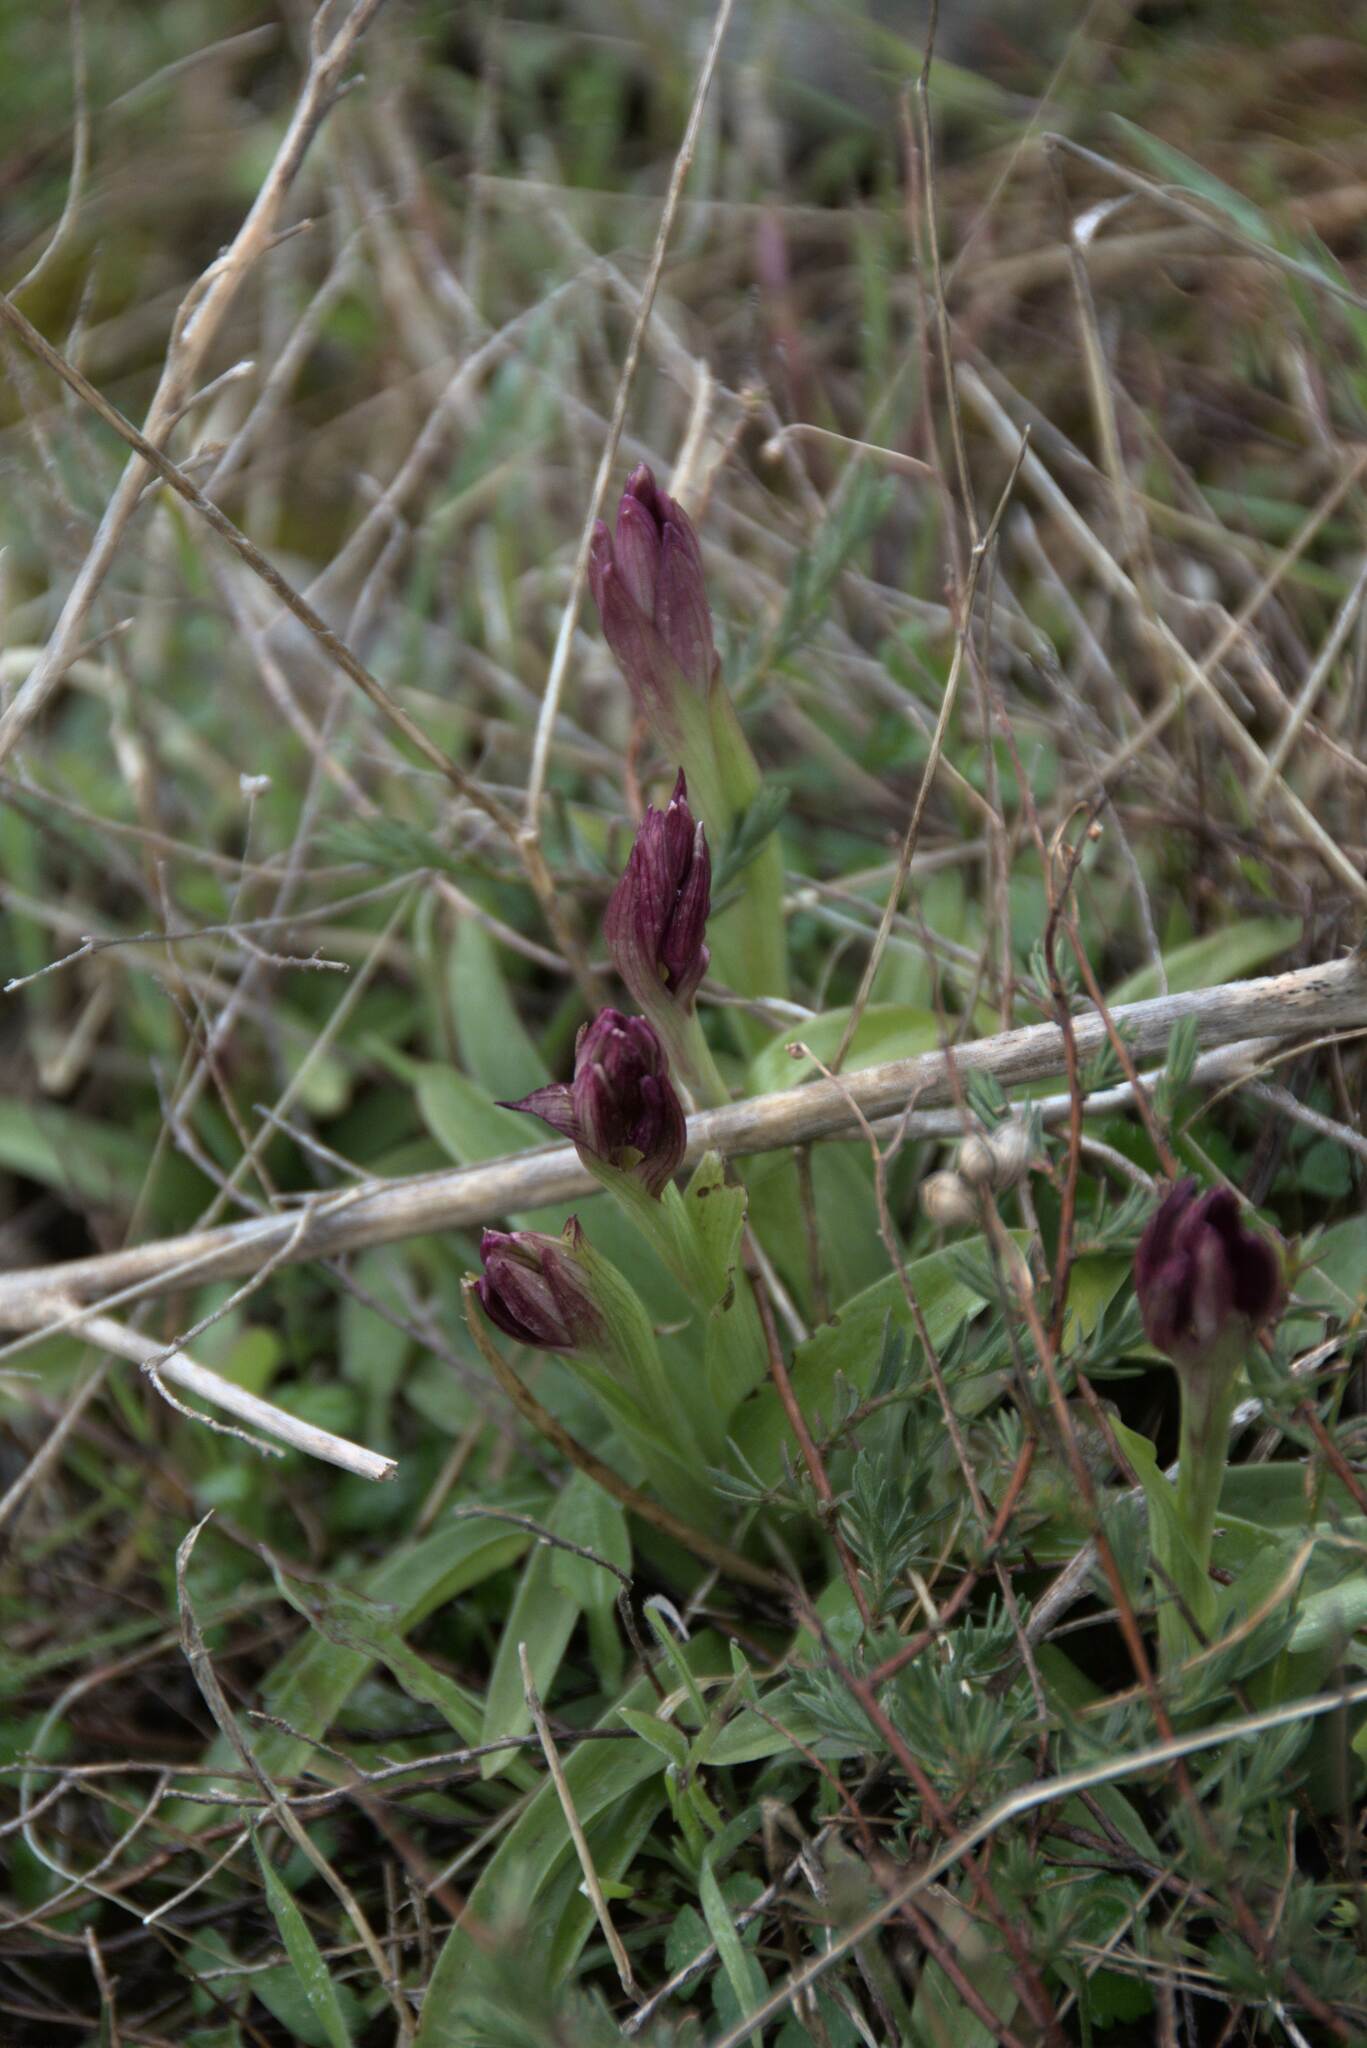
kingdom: Plantae
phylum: Tracheophyta
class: Liliopsida
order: Asparagales
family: Orchidaceae
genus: Anacamptis
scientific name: Anacamptis papilionacea
